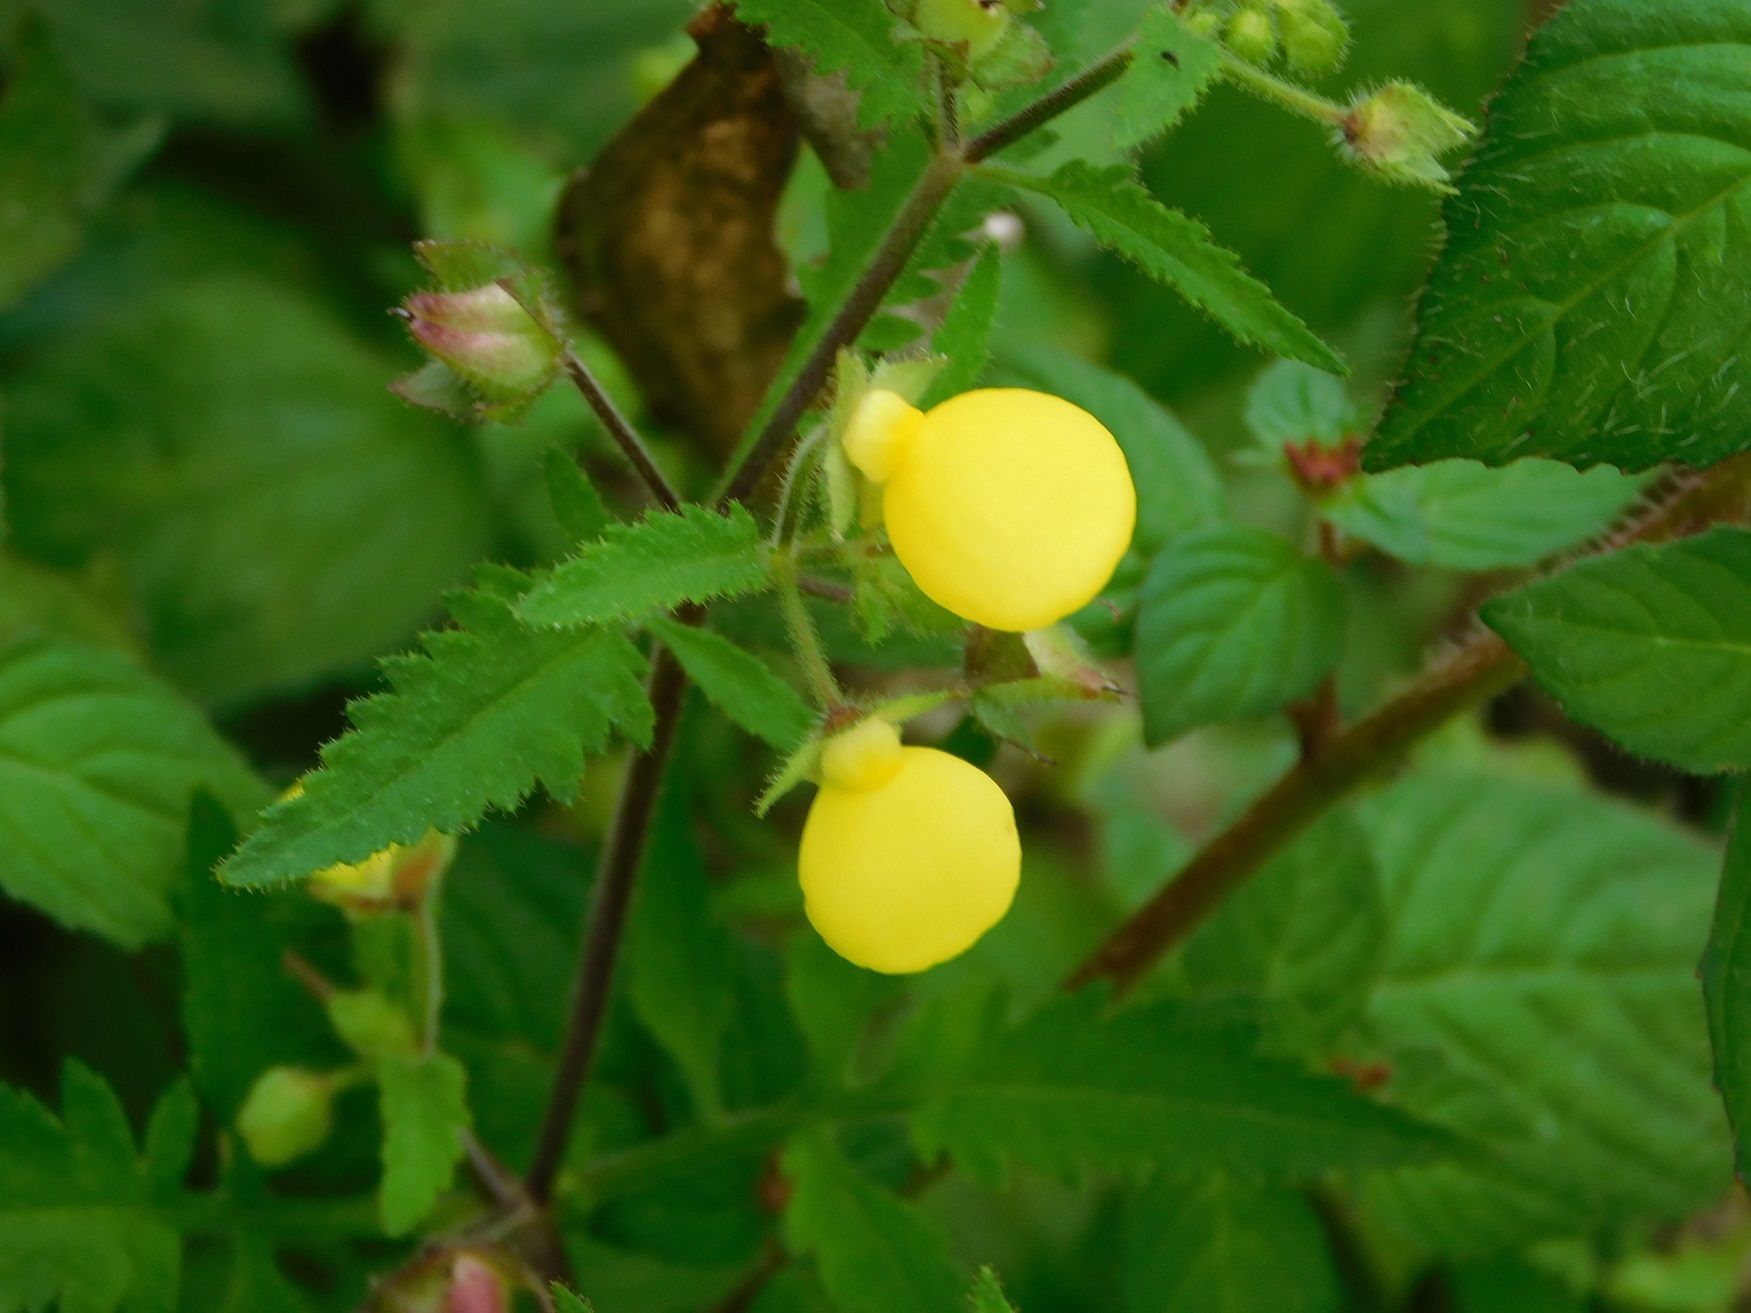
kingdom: Plantae
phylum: Tracheophyta
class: Magnoliopsida
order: Lamiales
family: Calceolariaceae
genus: Calceolaria
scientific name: Calceolaria tripartita
